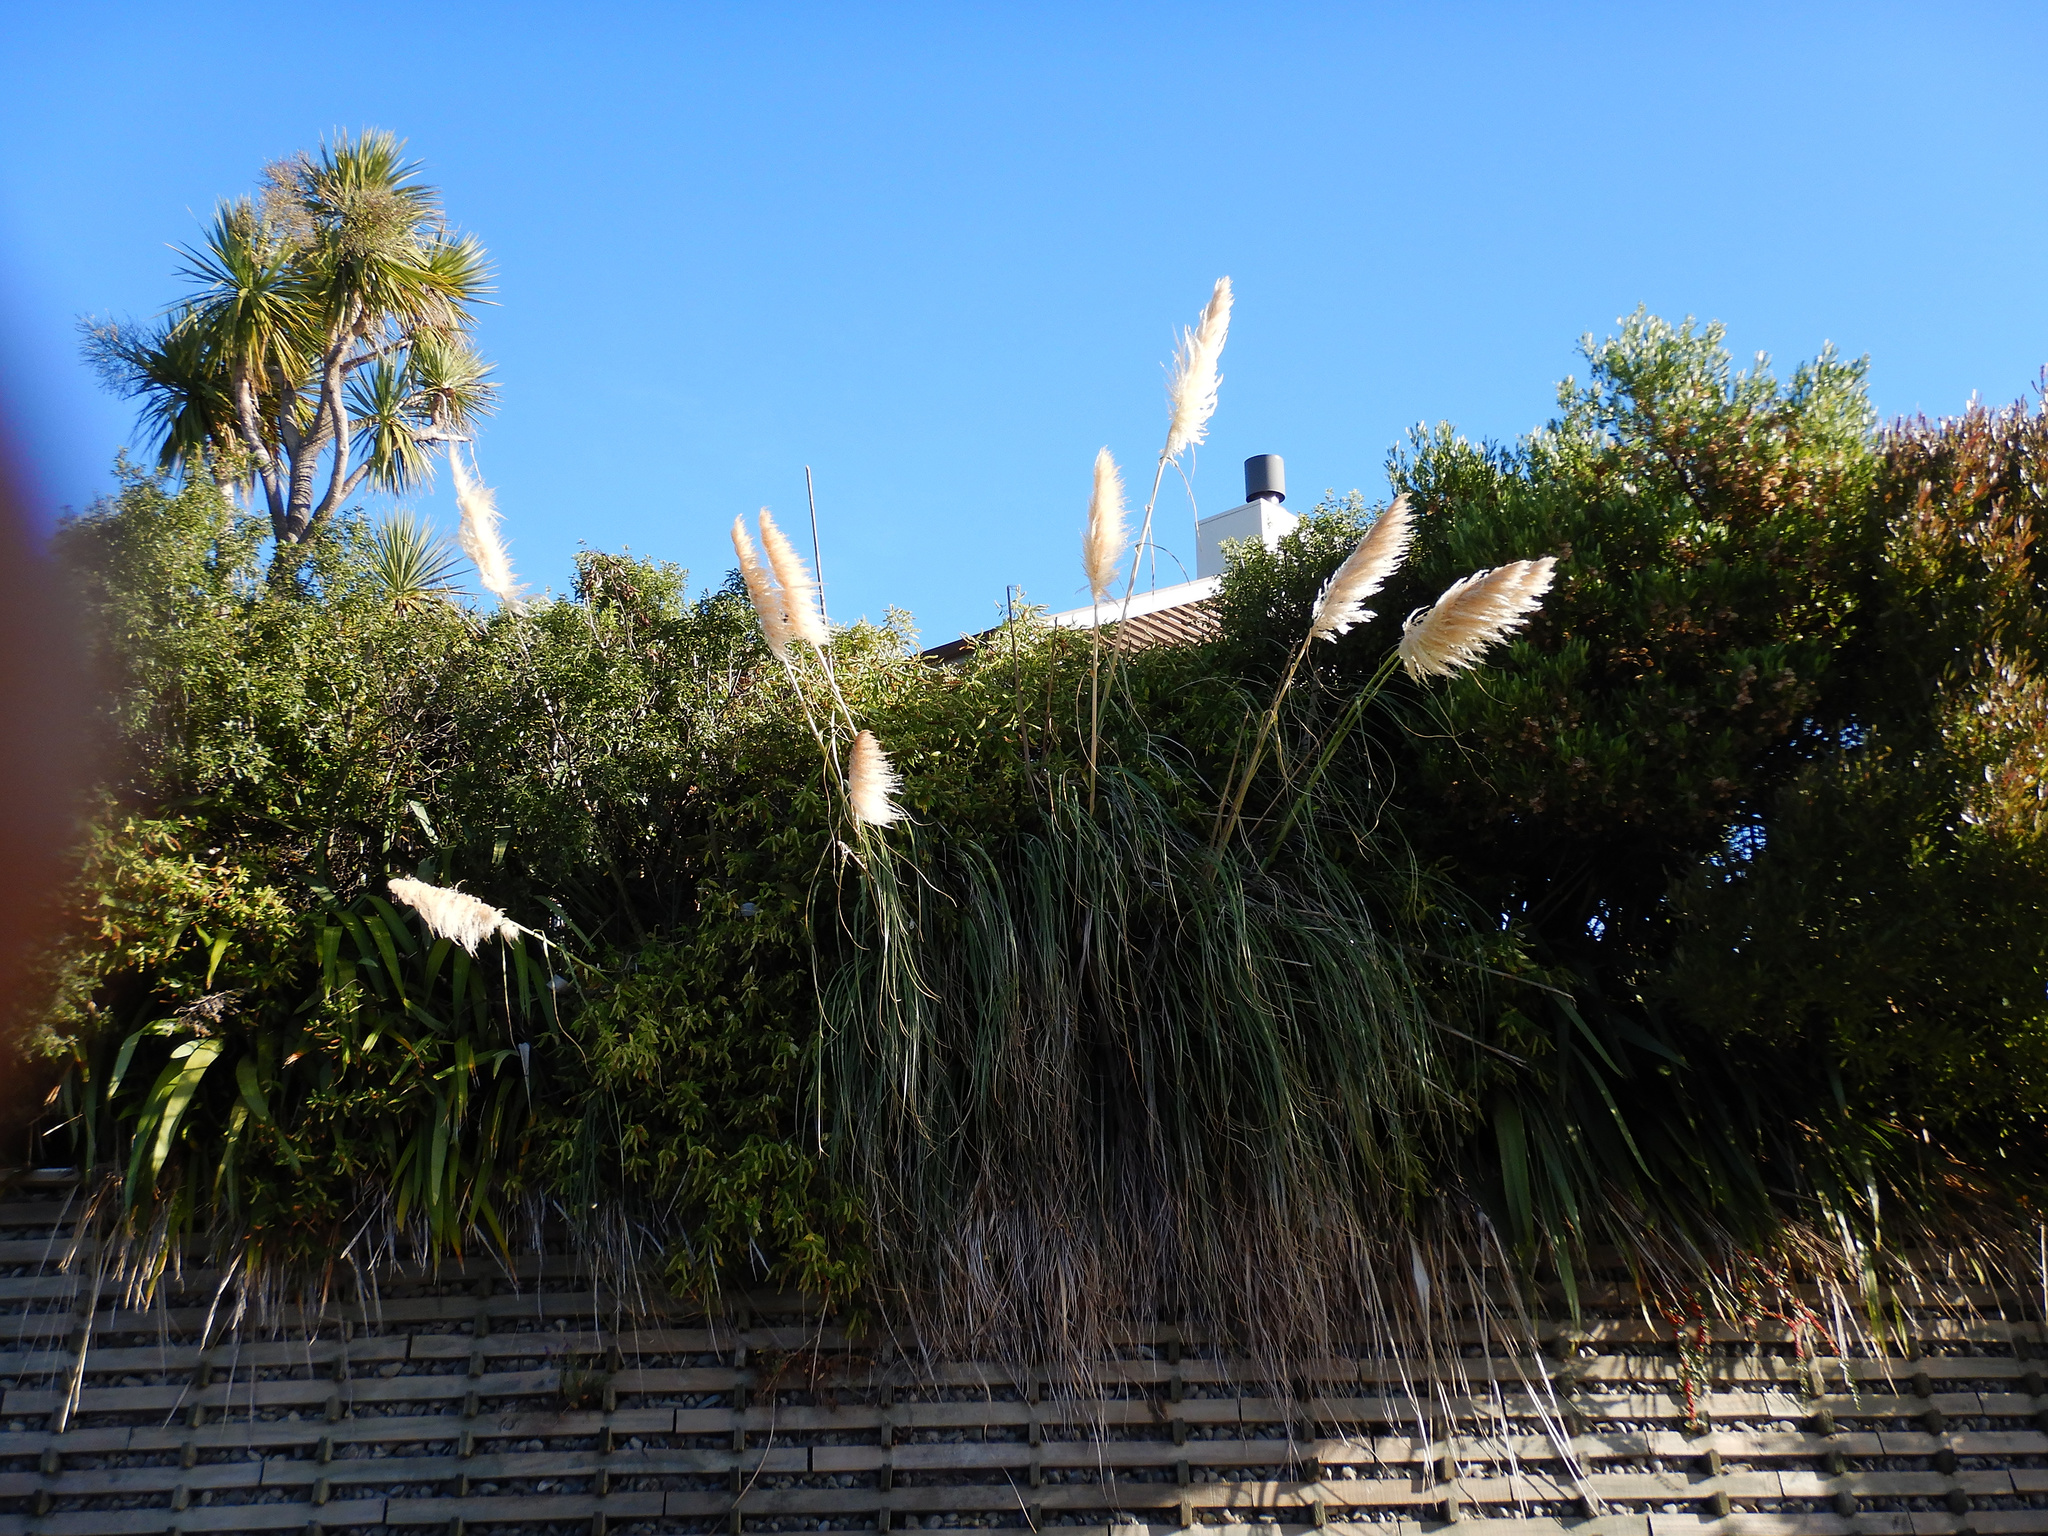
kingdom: Plantae
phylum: Tracheophyta
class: Liliopsida
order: Poales
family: Poaceae
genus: Cortaderia
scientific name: Cortaderia selloana
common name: Uruguayan pampas grass
